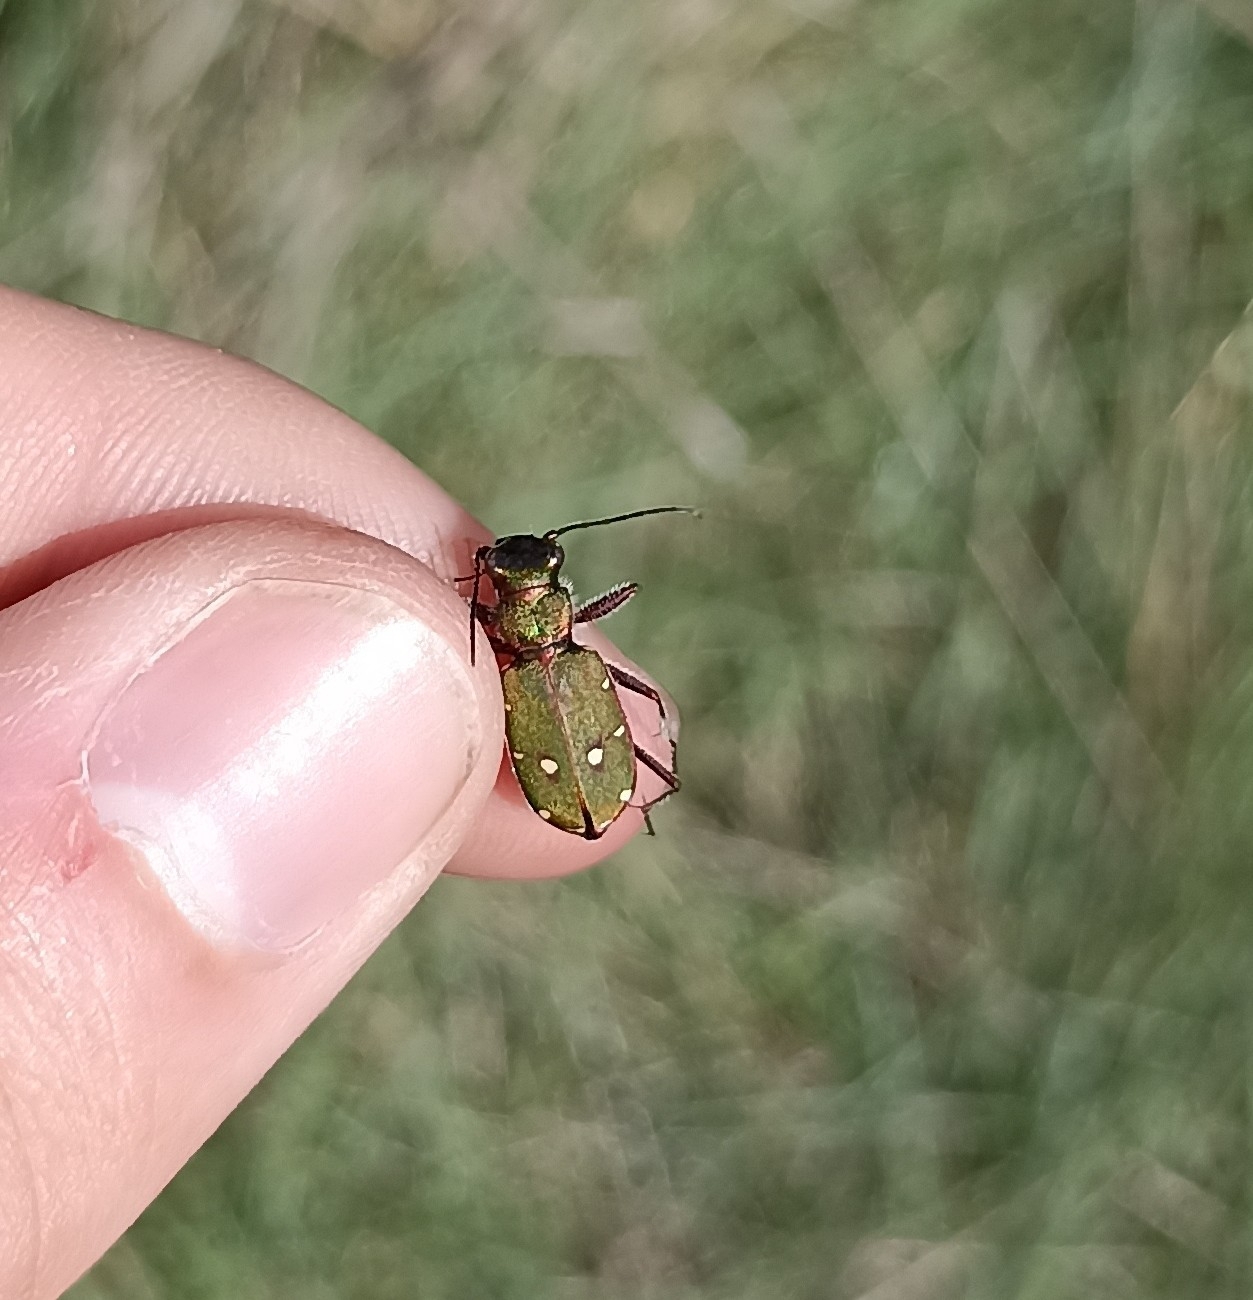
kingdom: Animalia
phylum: Arthropoda
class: Insecta
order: Coleoptera
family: Carabidae
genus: Cicindela
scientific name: Cicindela campestris
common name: Common tiger beetle
